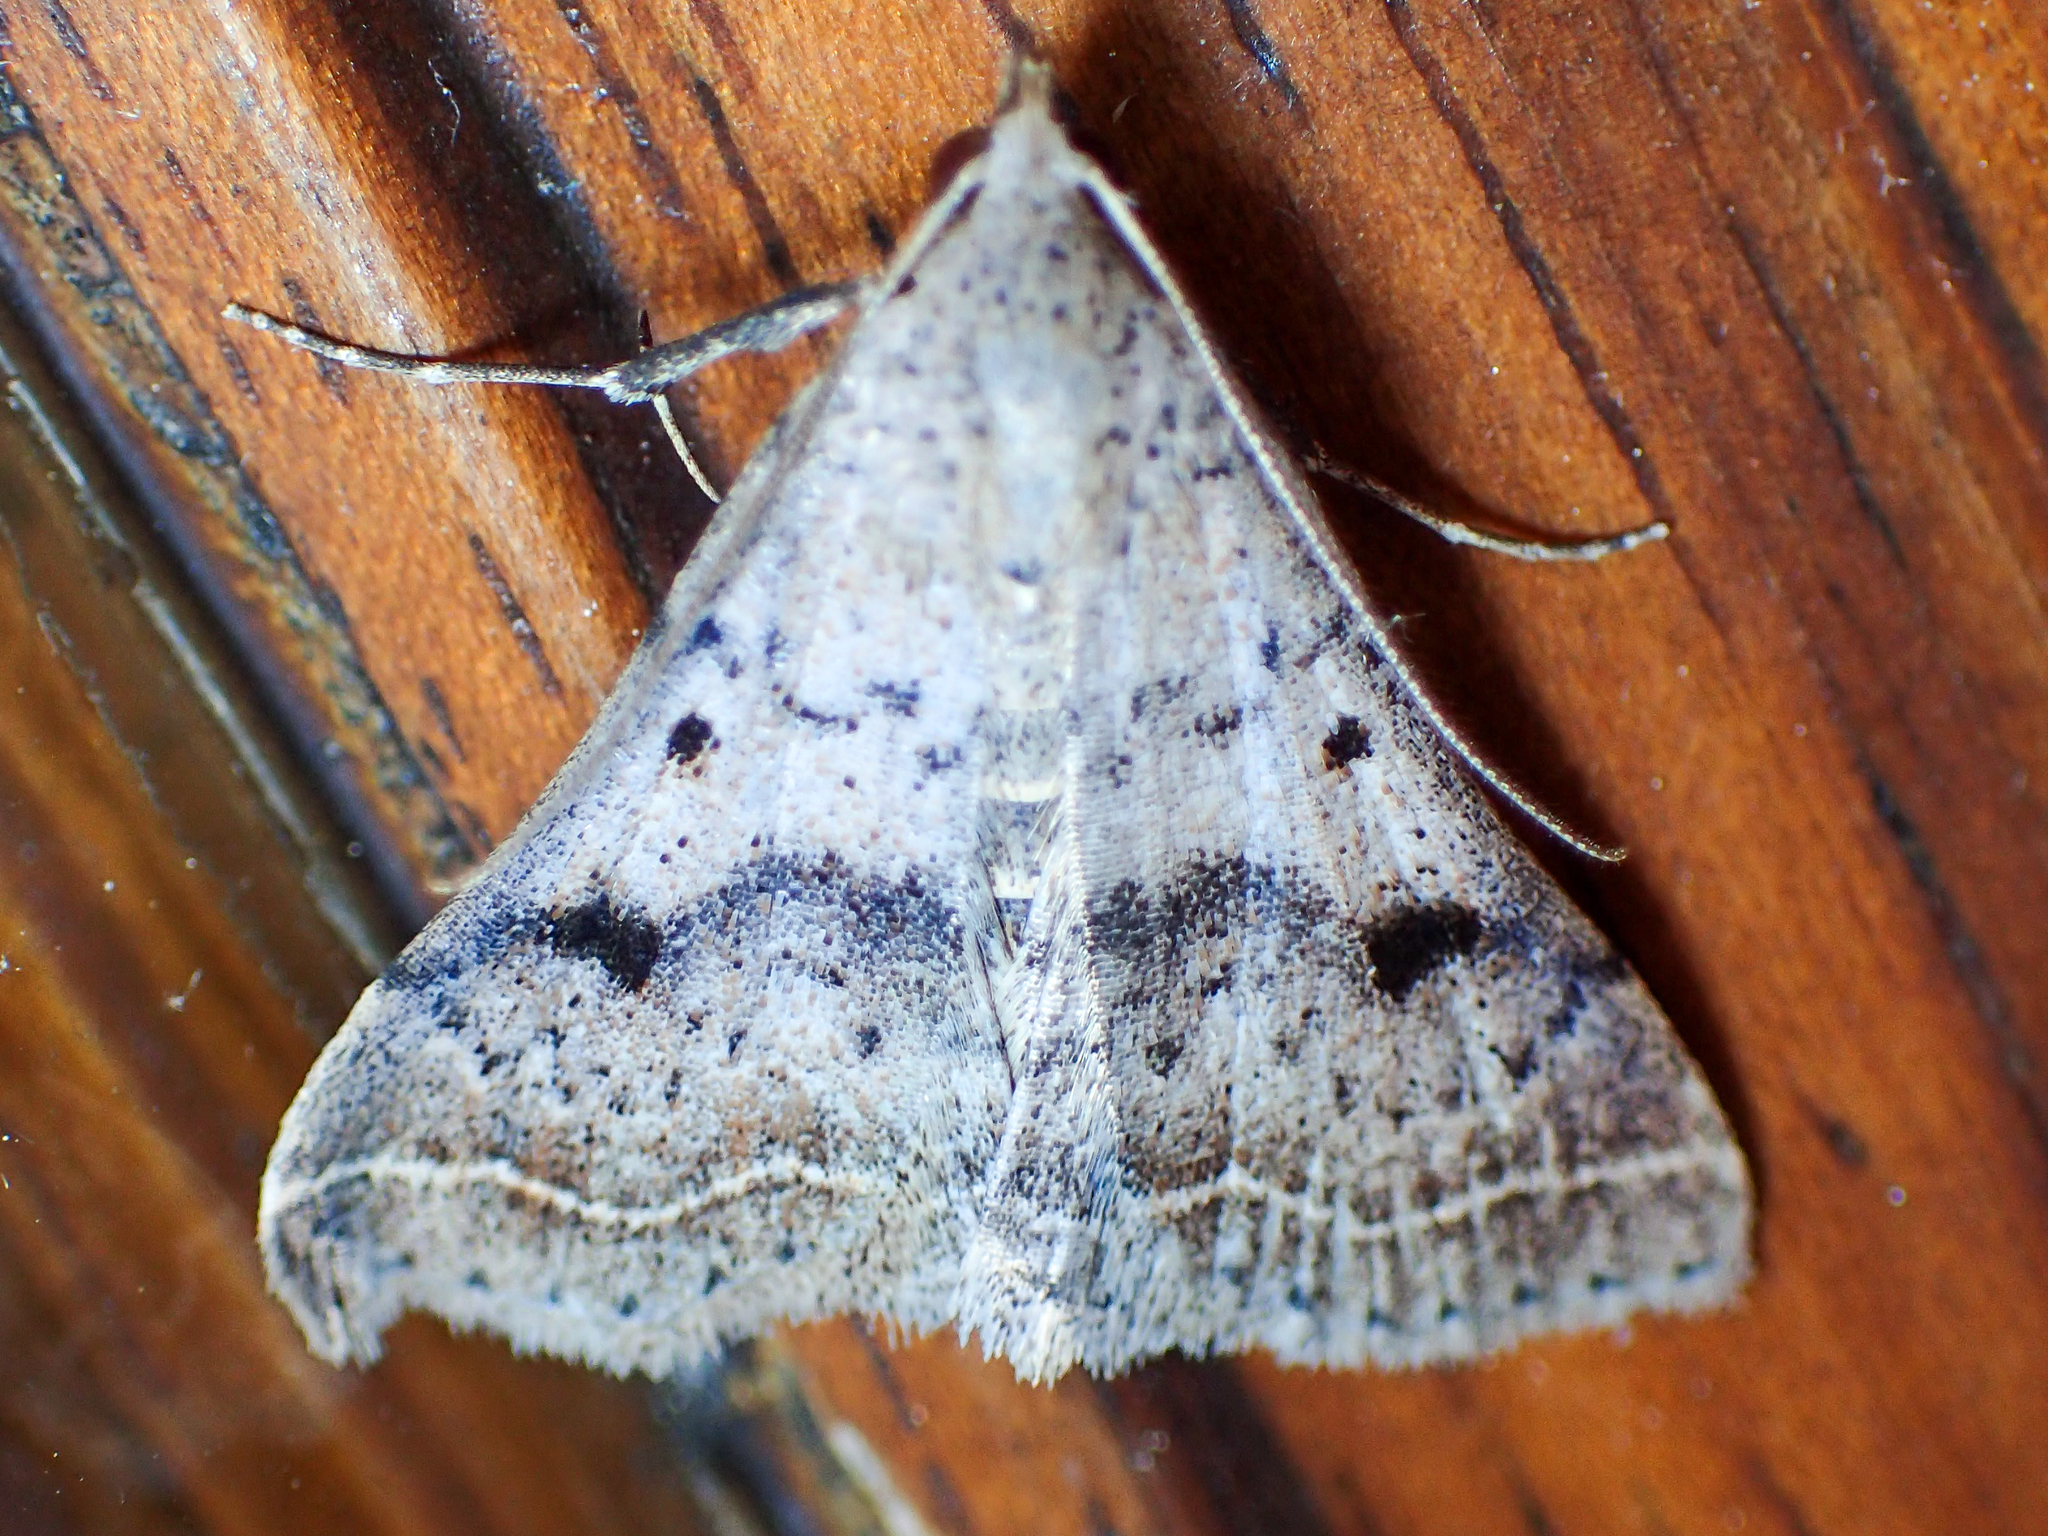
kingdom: Animalia
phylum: Arthropoda
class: Insecta
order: Lepidoptera
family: Erebidae
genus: Bleptina
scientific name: Bleptina caradrinalis
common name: Bent-winged owlet
